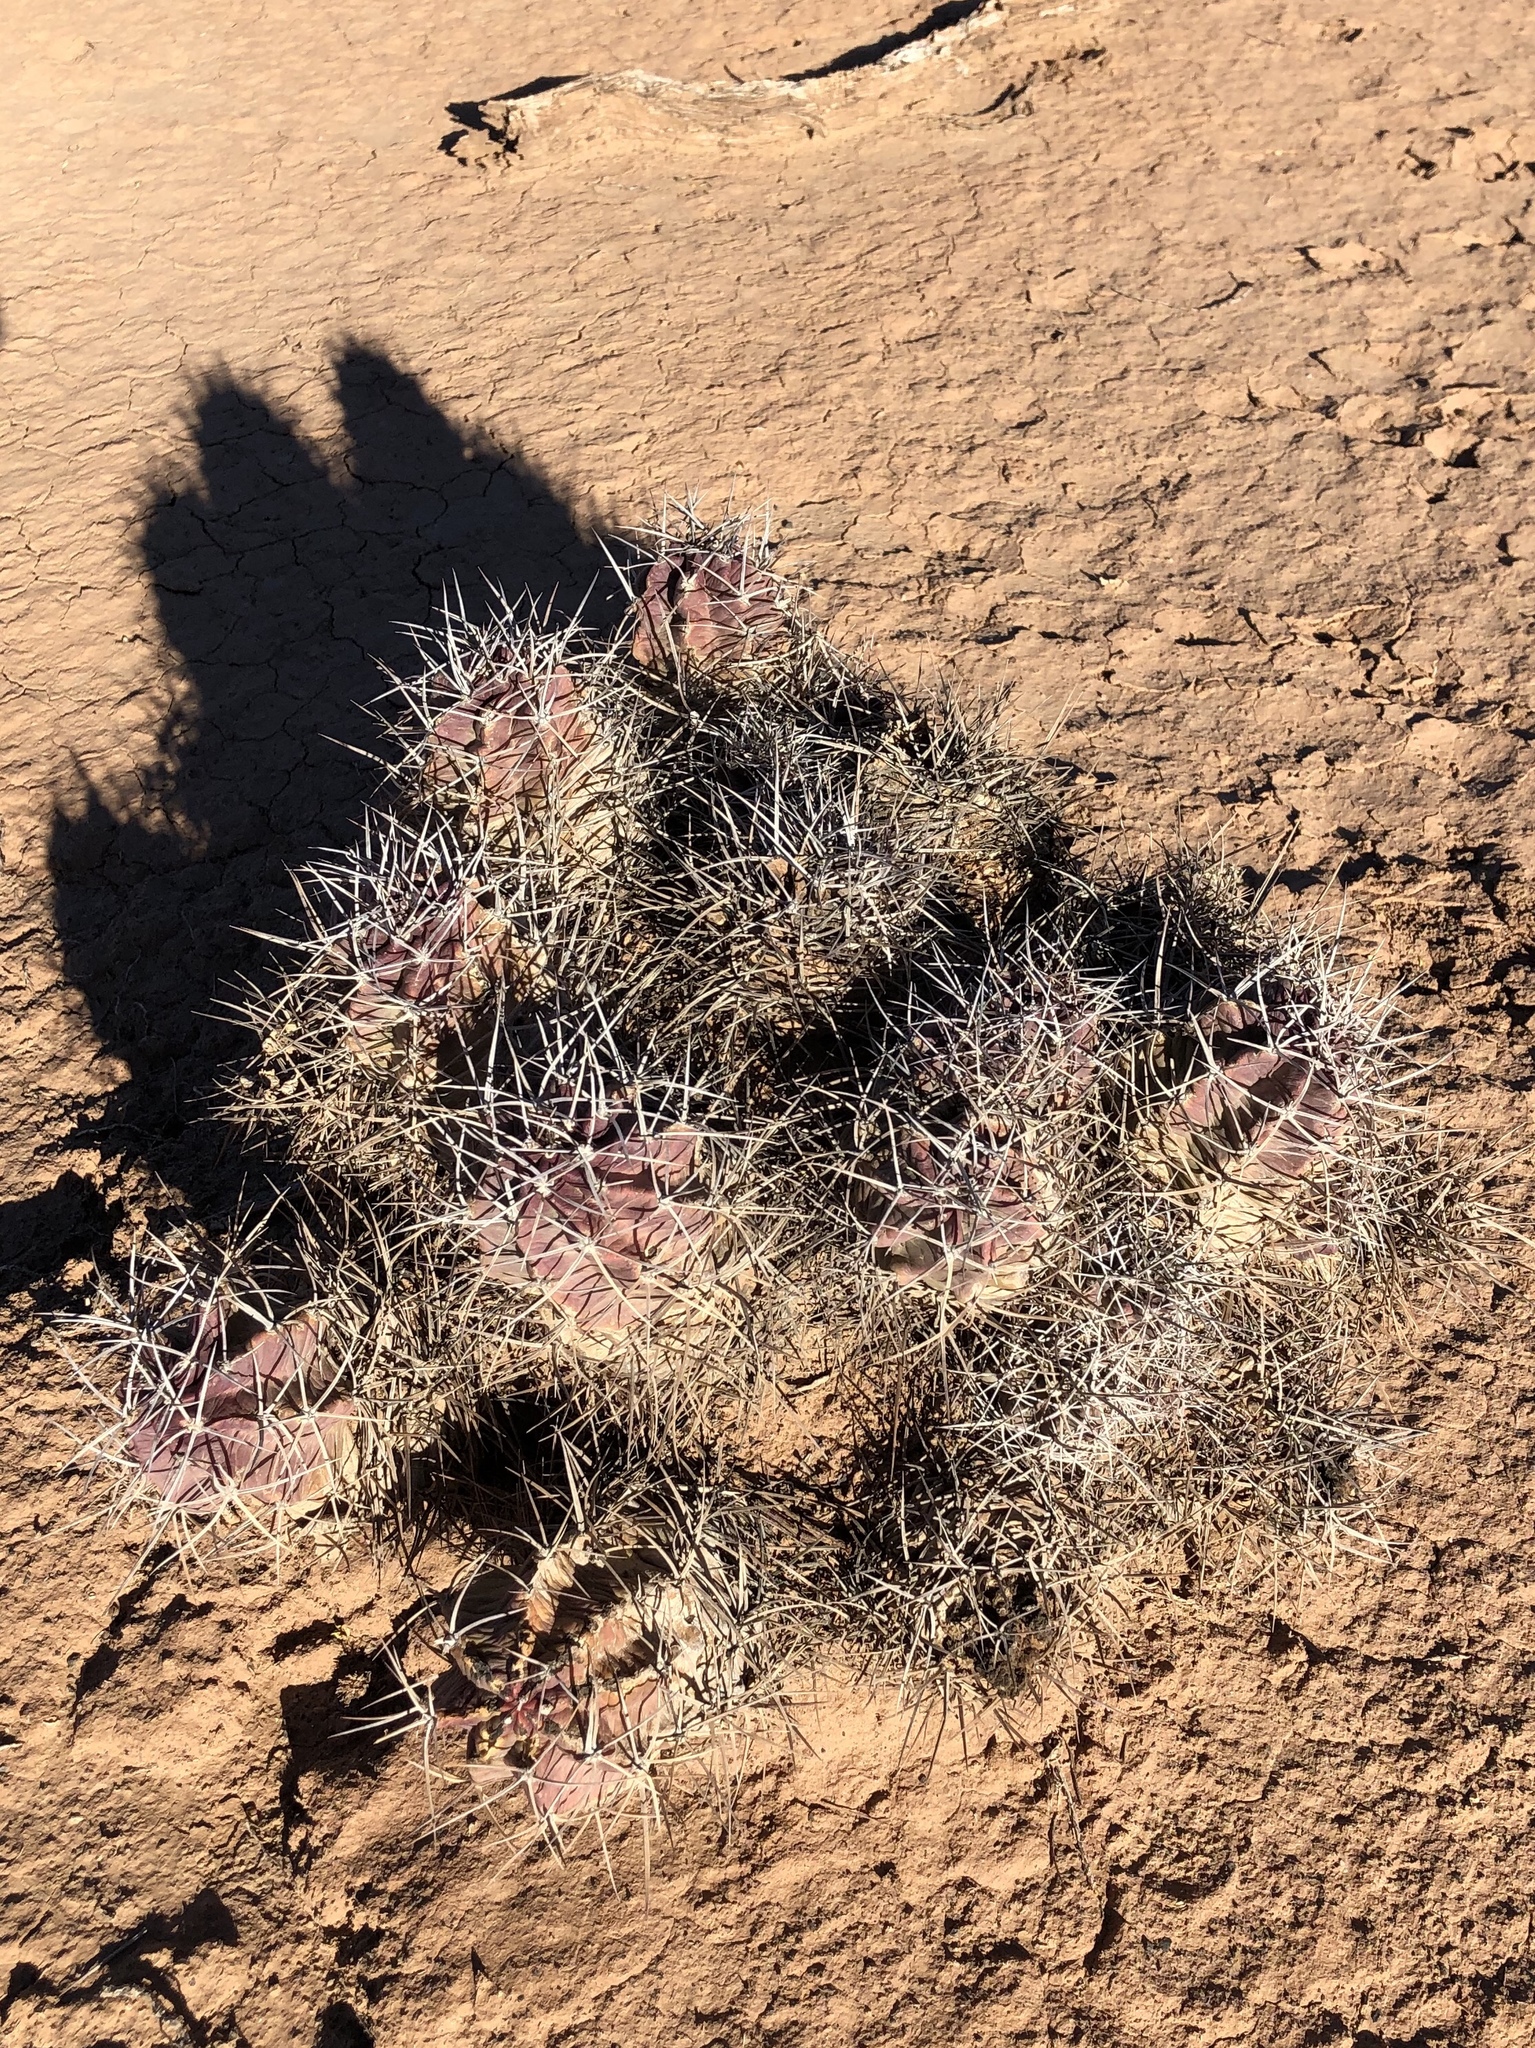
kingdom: Plantae
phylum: Tracheophyta
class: Magnoliopsida
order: Caryophyllales
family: Cactaceae
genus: Echinocereus
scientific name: Echinocereus triglochidiatus
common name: Claretcup hedgehog
